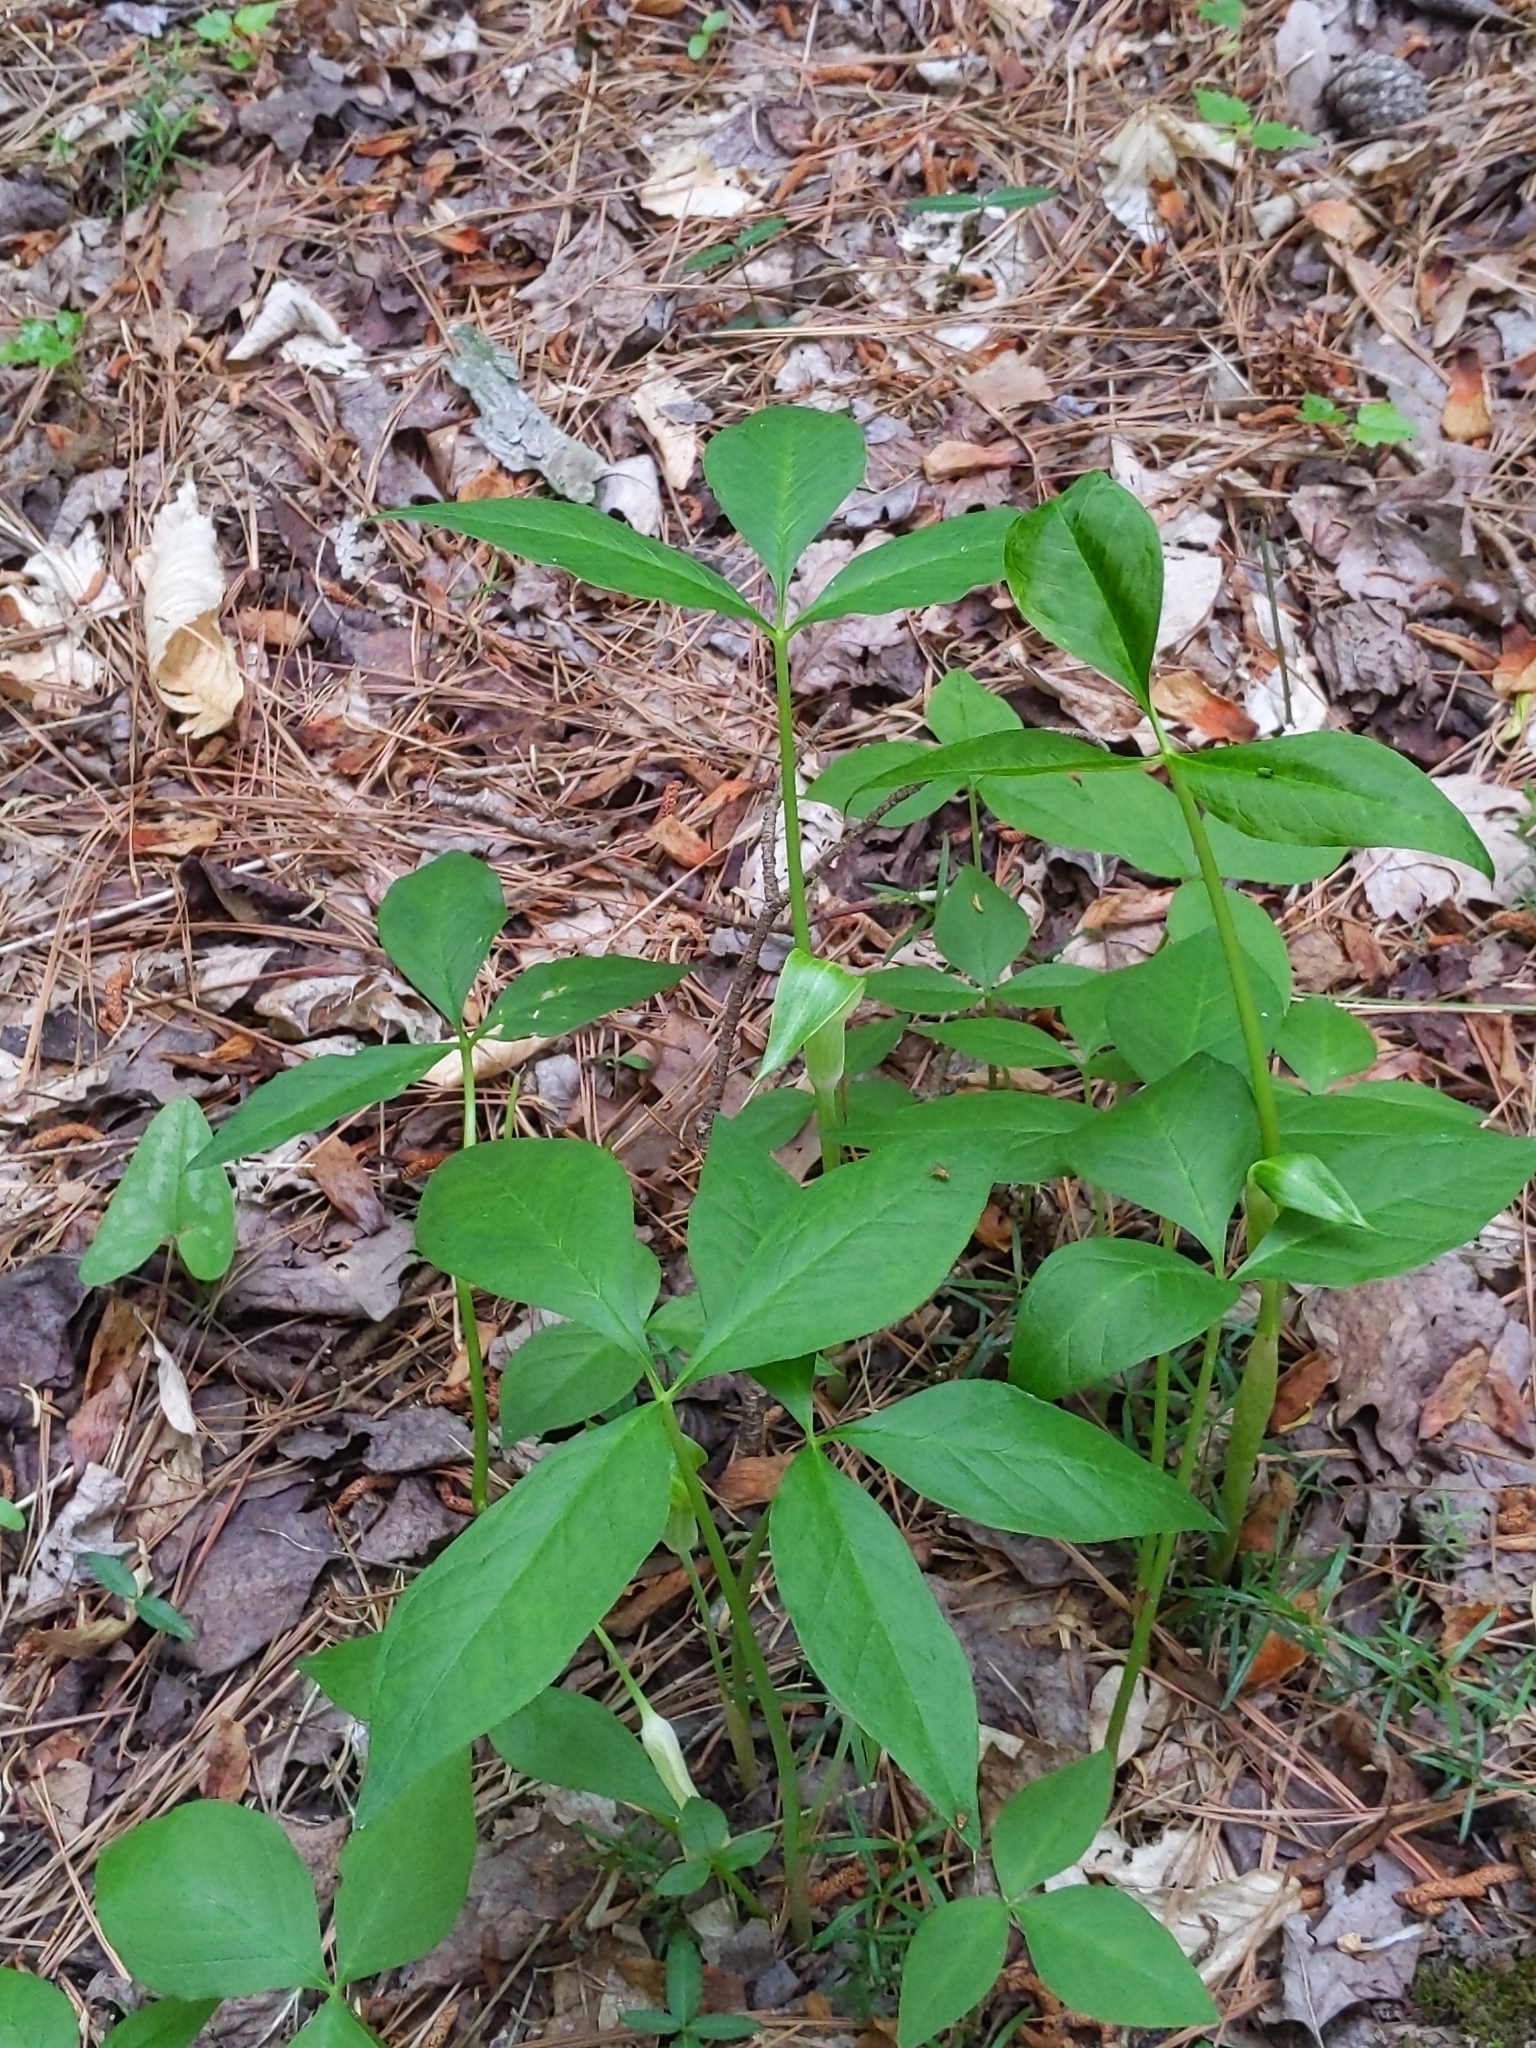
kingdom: Plantae
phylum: Tracheophyta
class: Liliopsida
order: Alismatales
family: Araceae
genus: Arisaema
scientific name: Arisaema triphyllum
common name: Jack-in-the-pulpit
